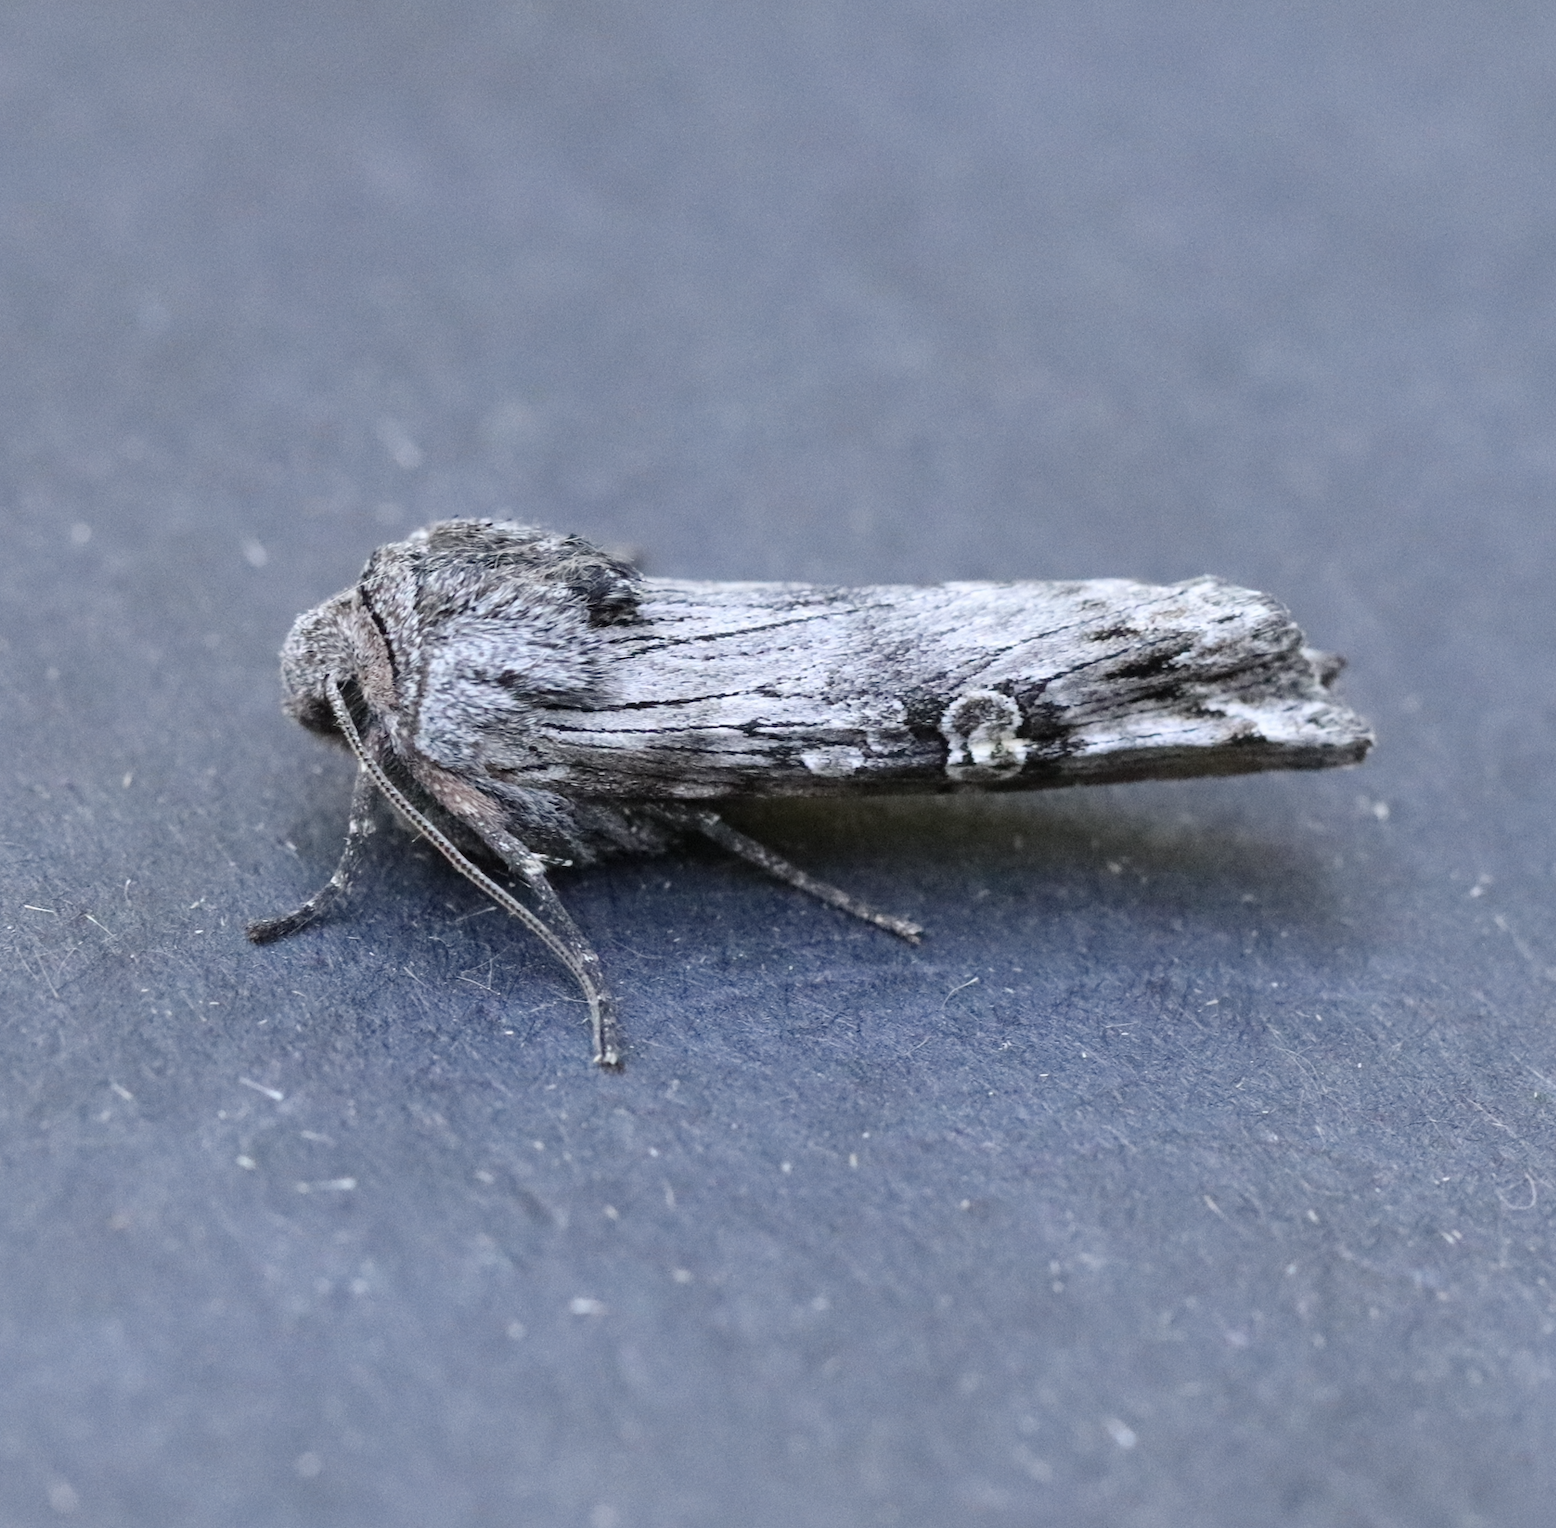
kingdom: Animalia
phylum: Arthropoda
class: Insecta
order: Lepidoptera
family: Noctuidae
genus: Xylena
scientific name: Xylena germana
